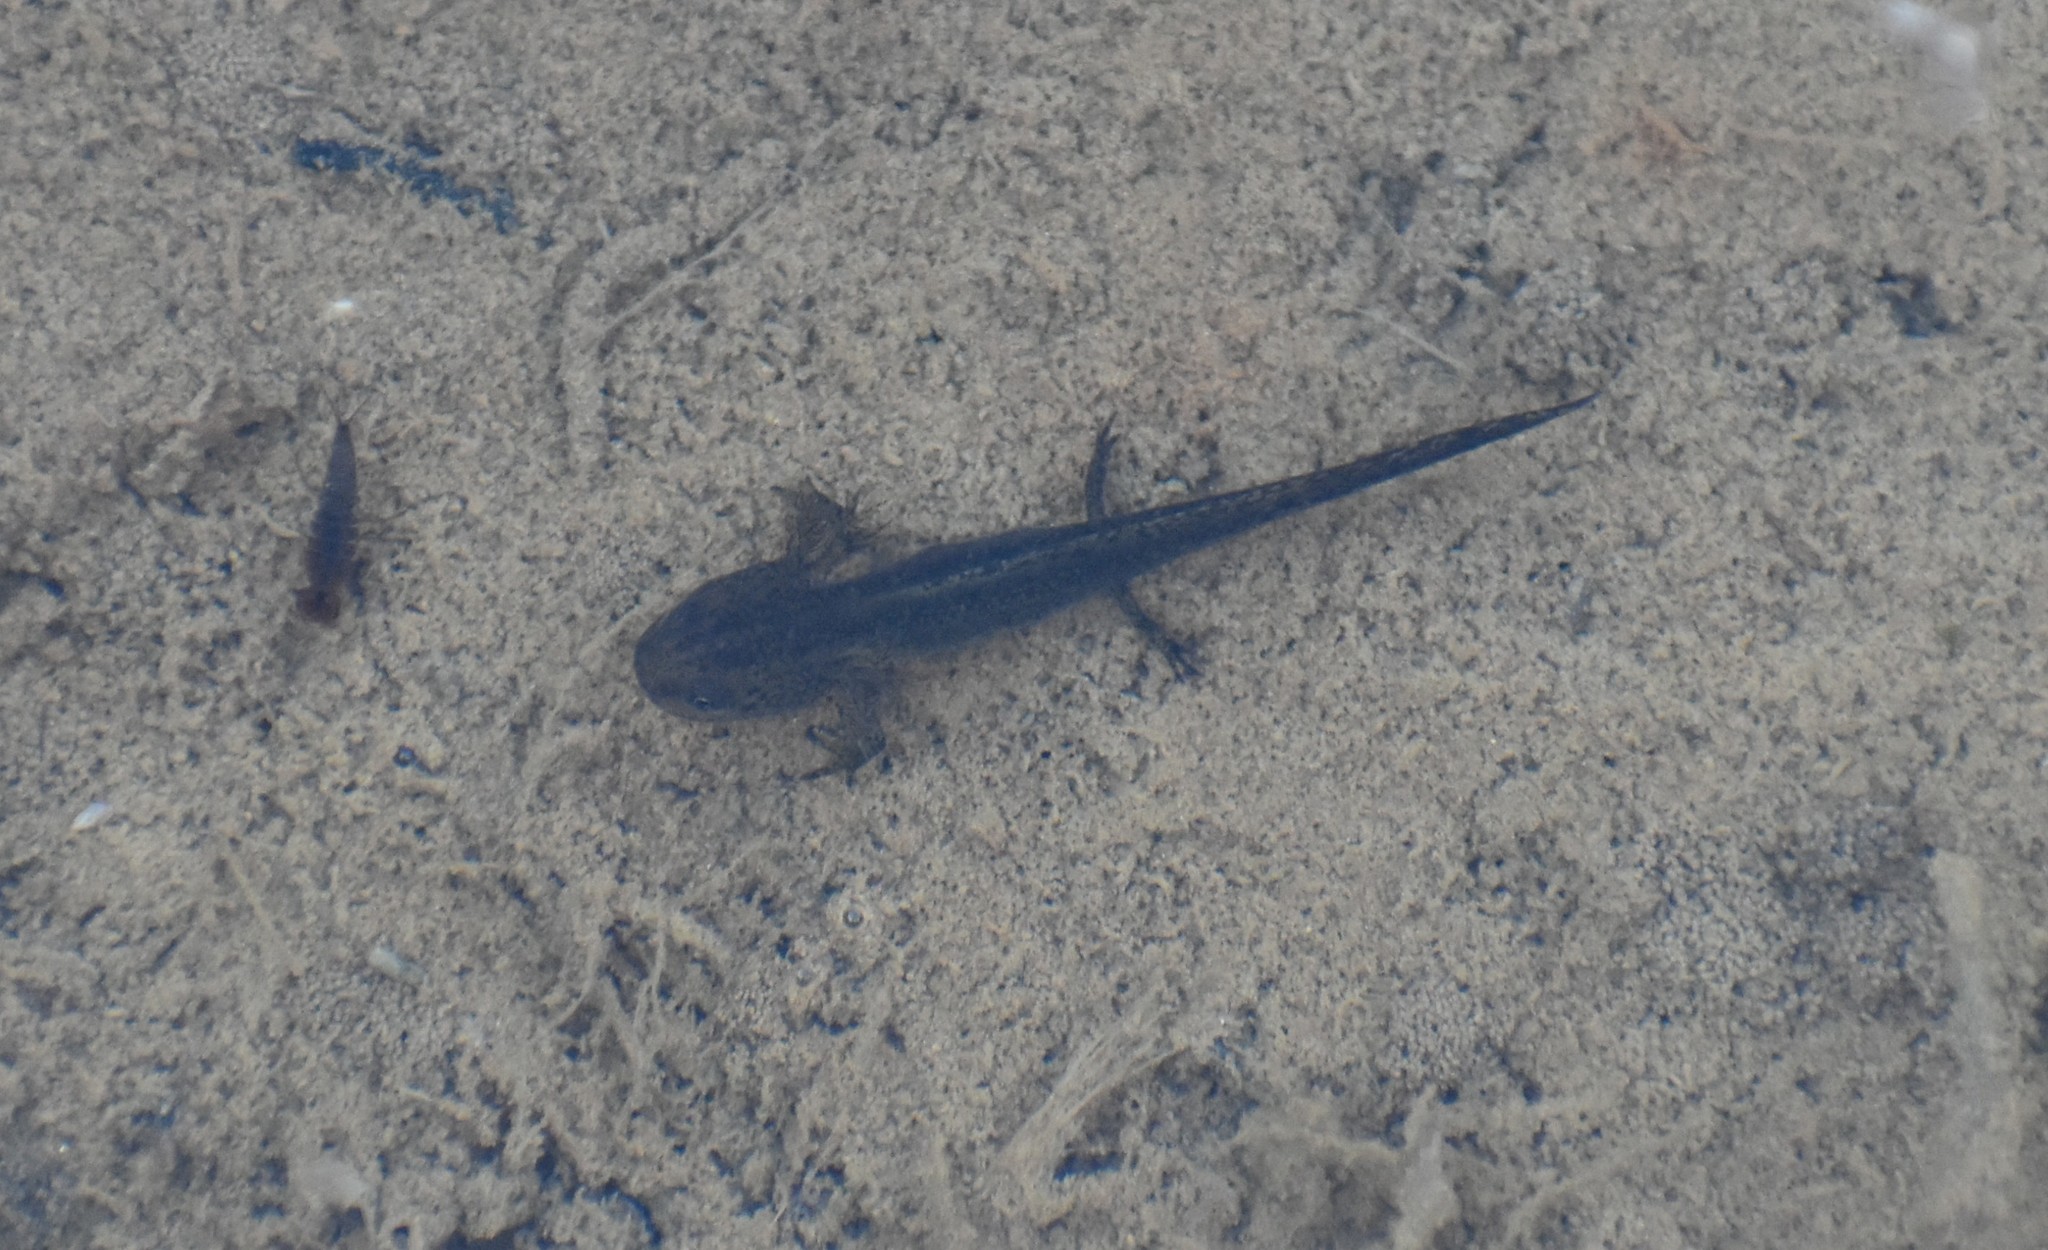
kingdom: Animalia
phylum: Chordata
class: Amphibia
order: Caudata
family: Salamandridae
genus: Ichthyosaura
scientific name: Ichthyosaura alpestris
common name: Alpine newt
